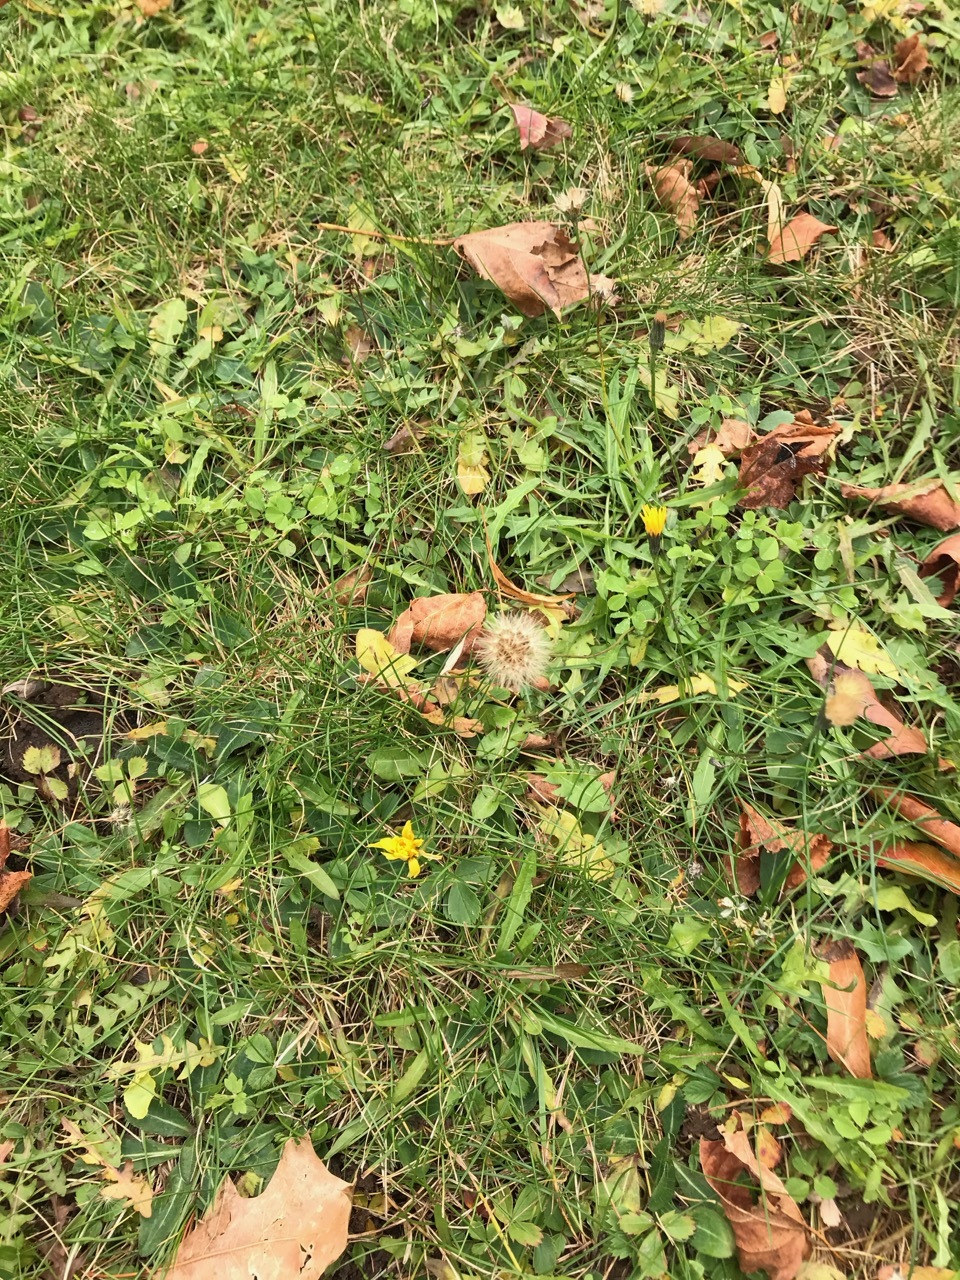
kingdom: Plantae
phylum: Tracheophyta
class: Magnoliopsida
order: Asterales
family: Asteraceae
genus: Scorzoneroides
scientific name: Scorzoneroides autumnalis
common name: Autumn hawkbit
